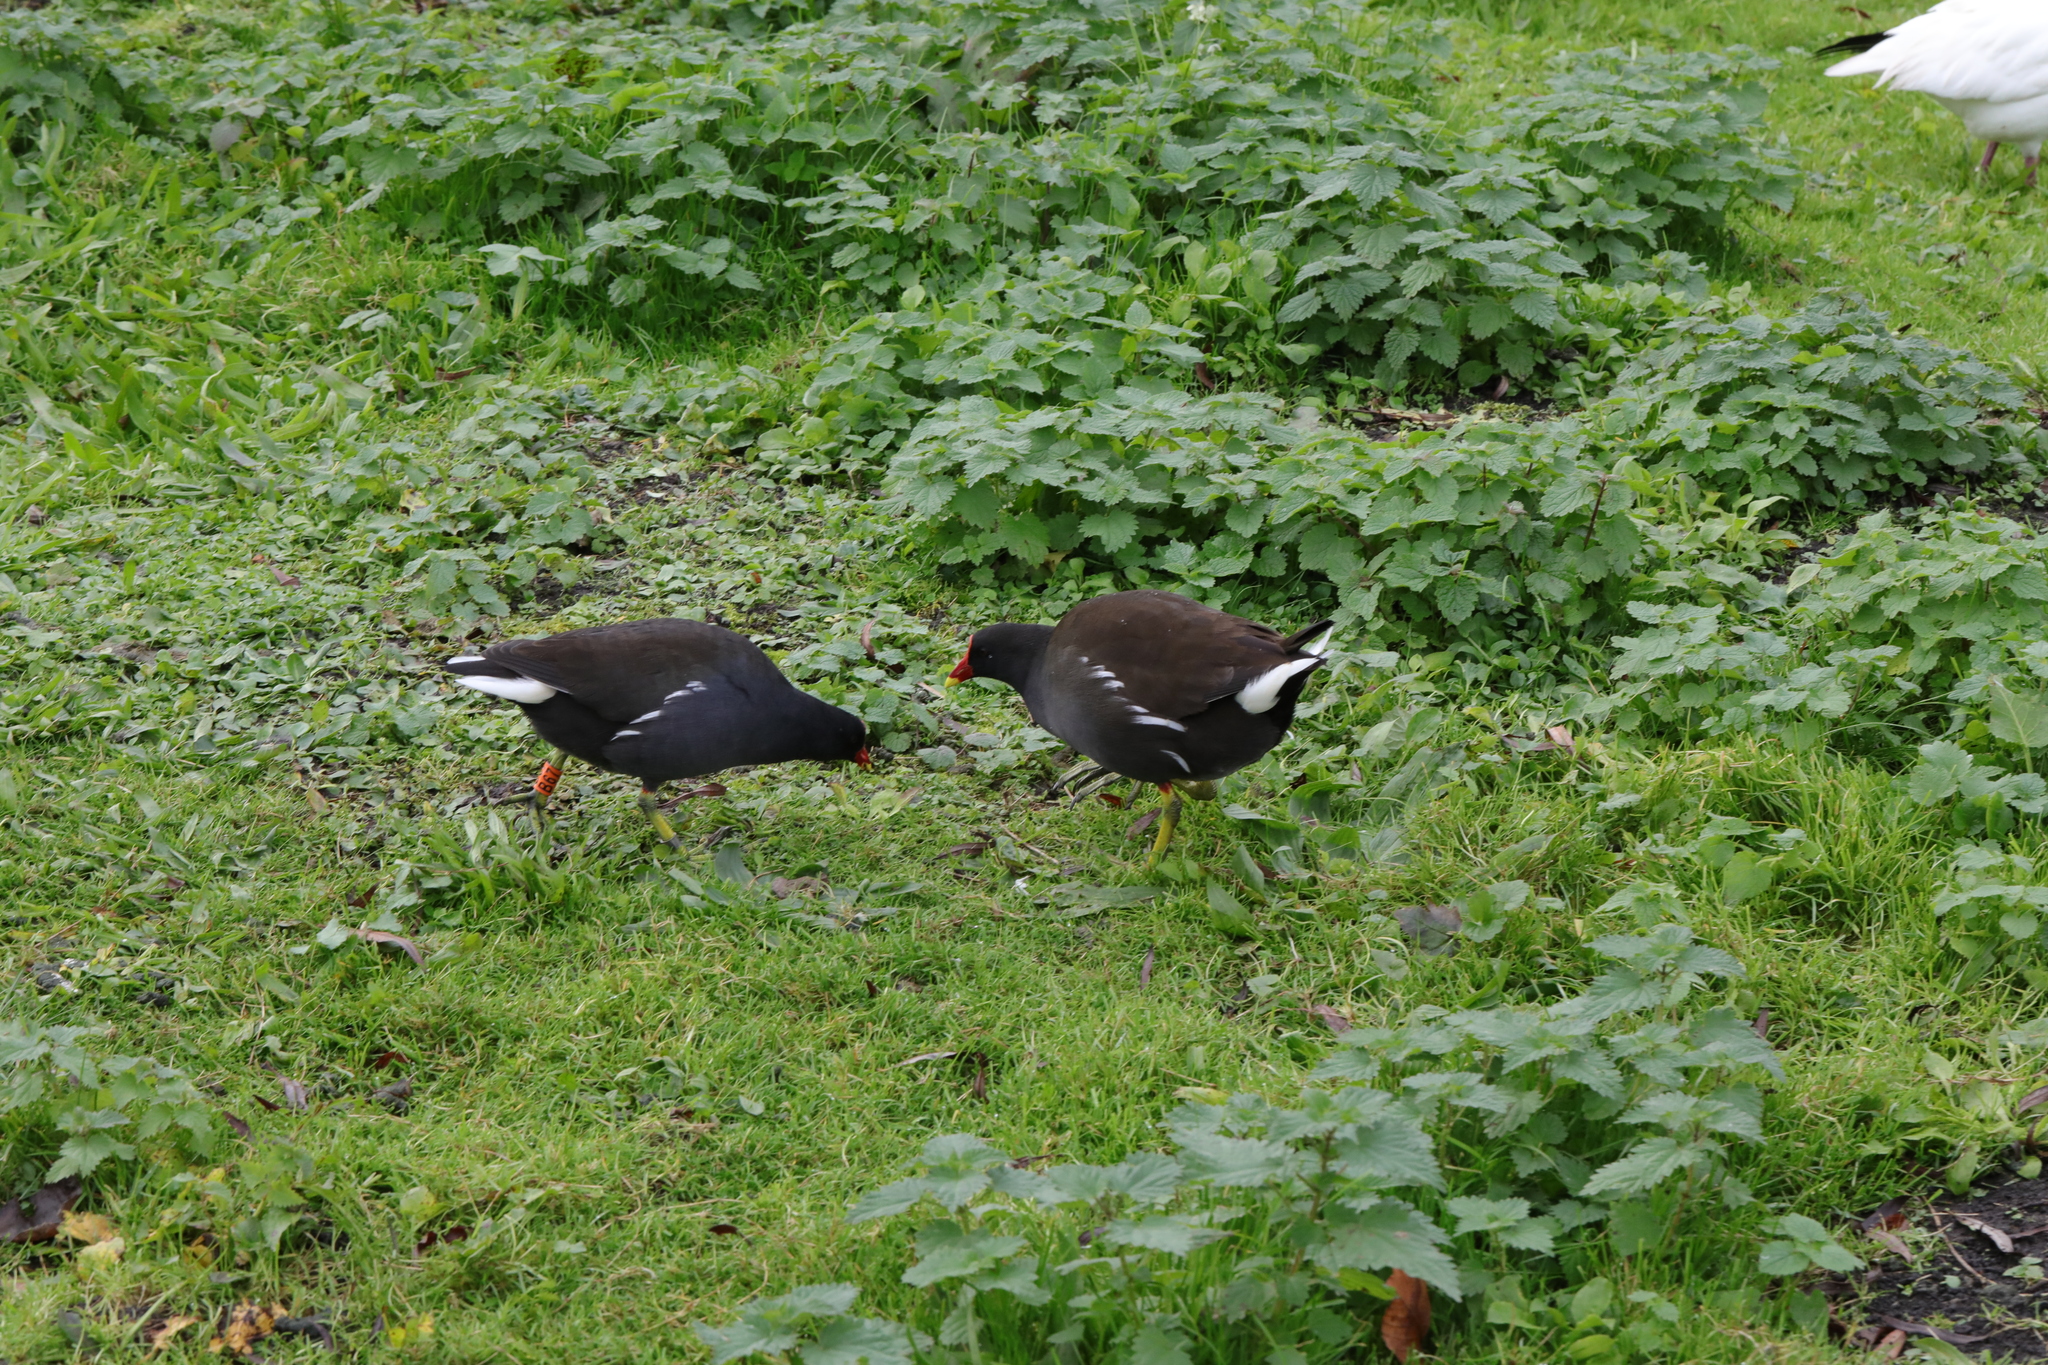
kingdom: Animalia
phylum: Chordata
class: Aves
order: Gruiformes
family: Rallidae
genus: Gallinula
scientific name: Gallinula chloropus
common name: Common moorhen
